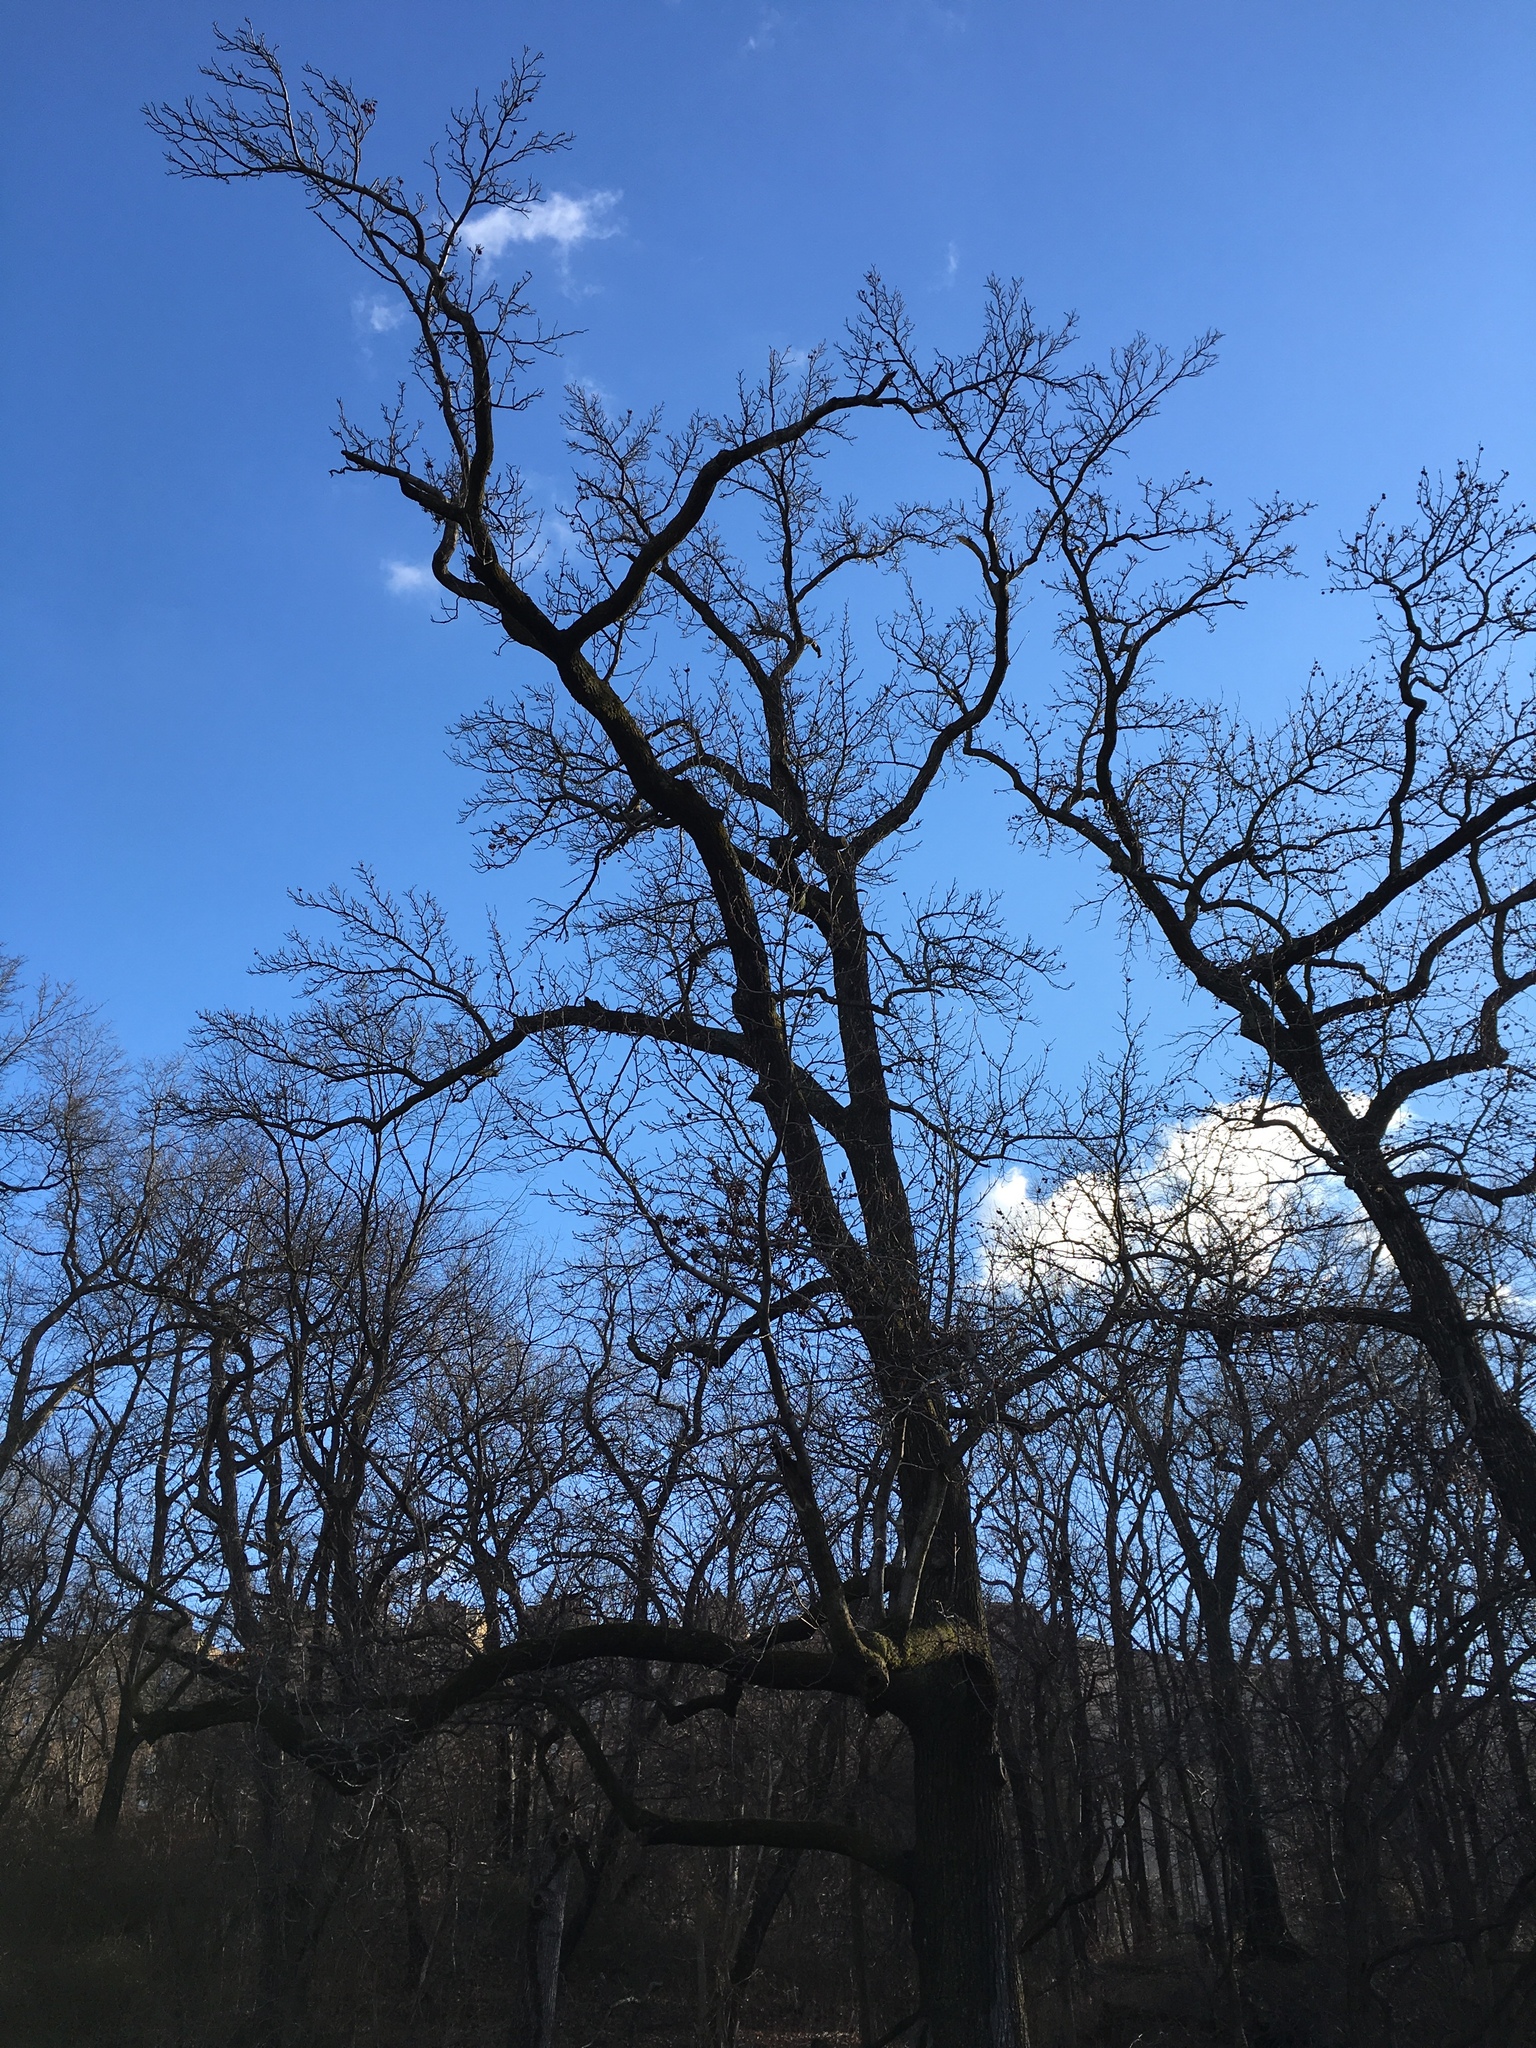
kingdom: Plantae
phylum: Tracheophyta
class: Magnoliopsida
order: Saxifragales
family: Altingiaceae
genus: Liquidambar
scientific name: Liquidambar styraciflua
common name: Sweet gum
